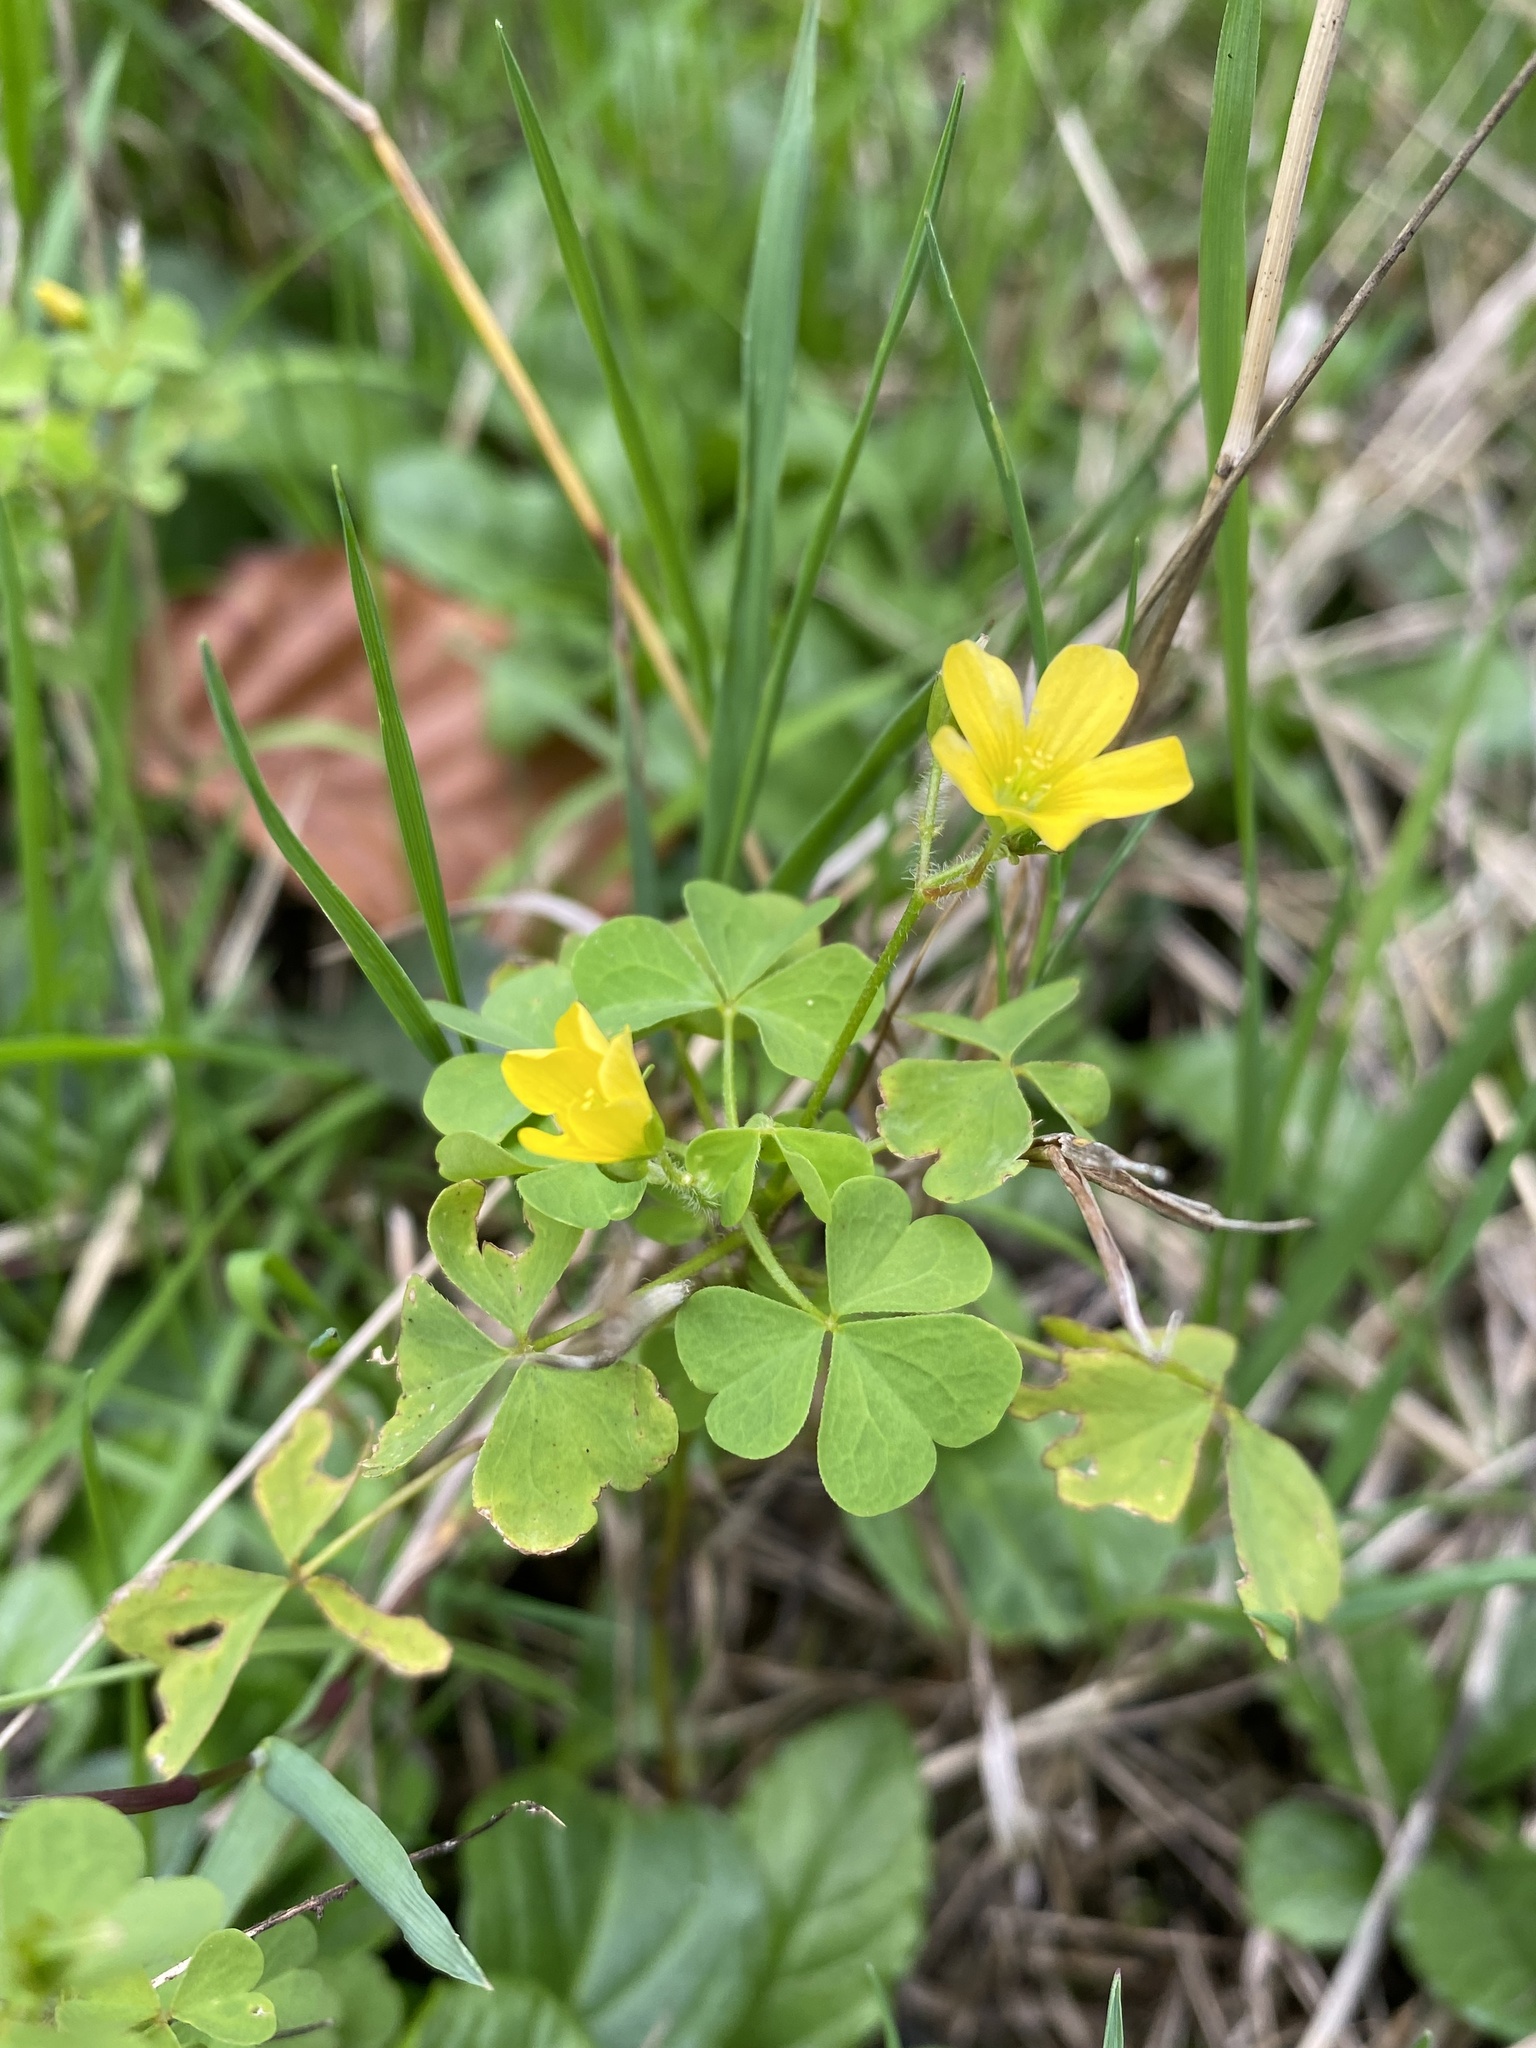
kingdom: Plantae
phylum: Tracheophyta
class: Magnoliopsida
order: Oxalidales
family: Oxalidaceae
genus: Oxalis
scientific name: Oxalis stricta
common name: Upright yellow-sorrel
